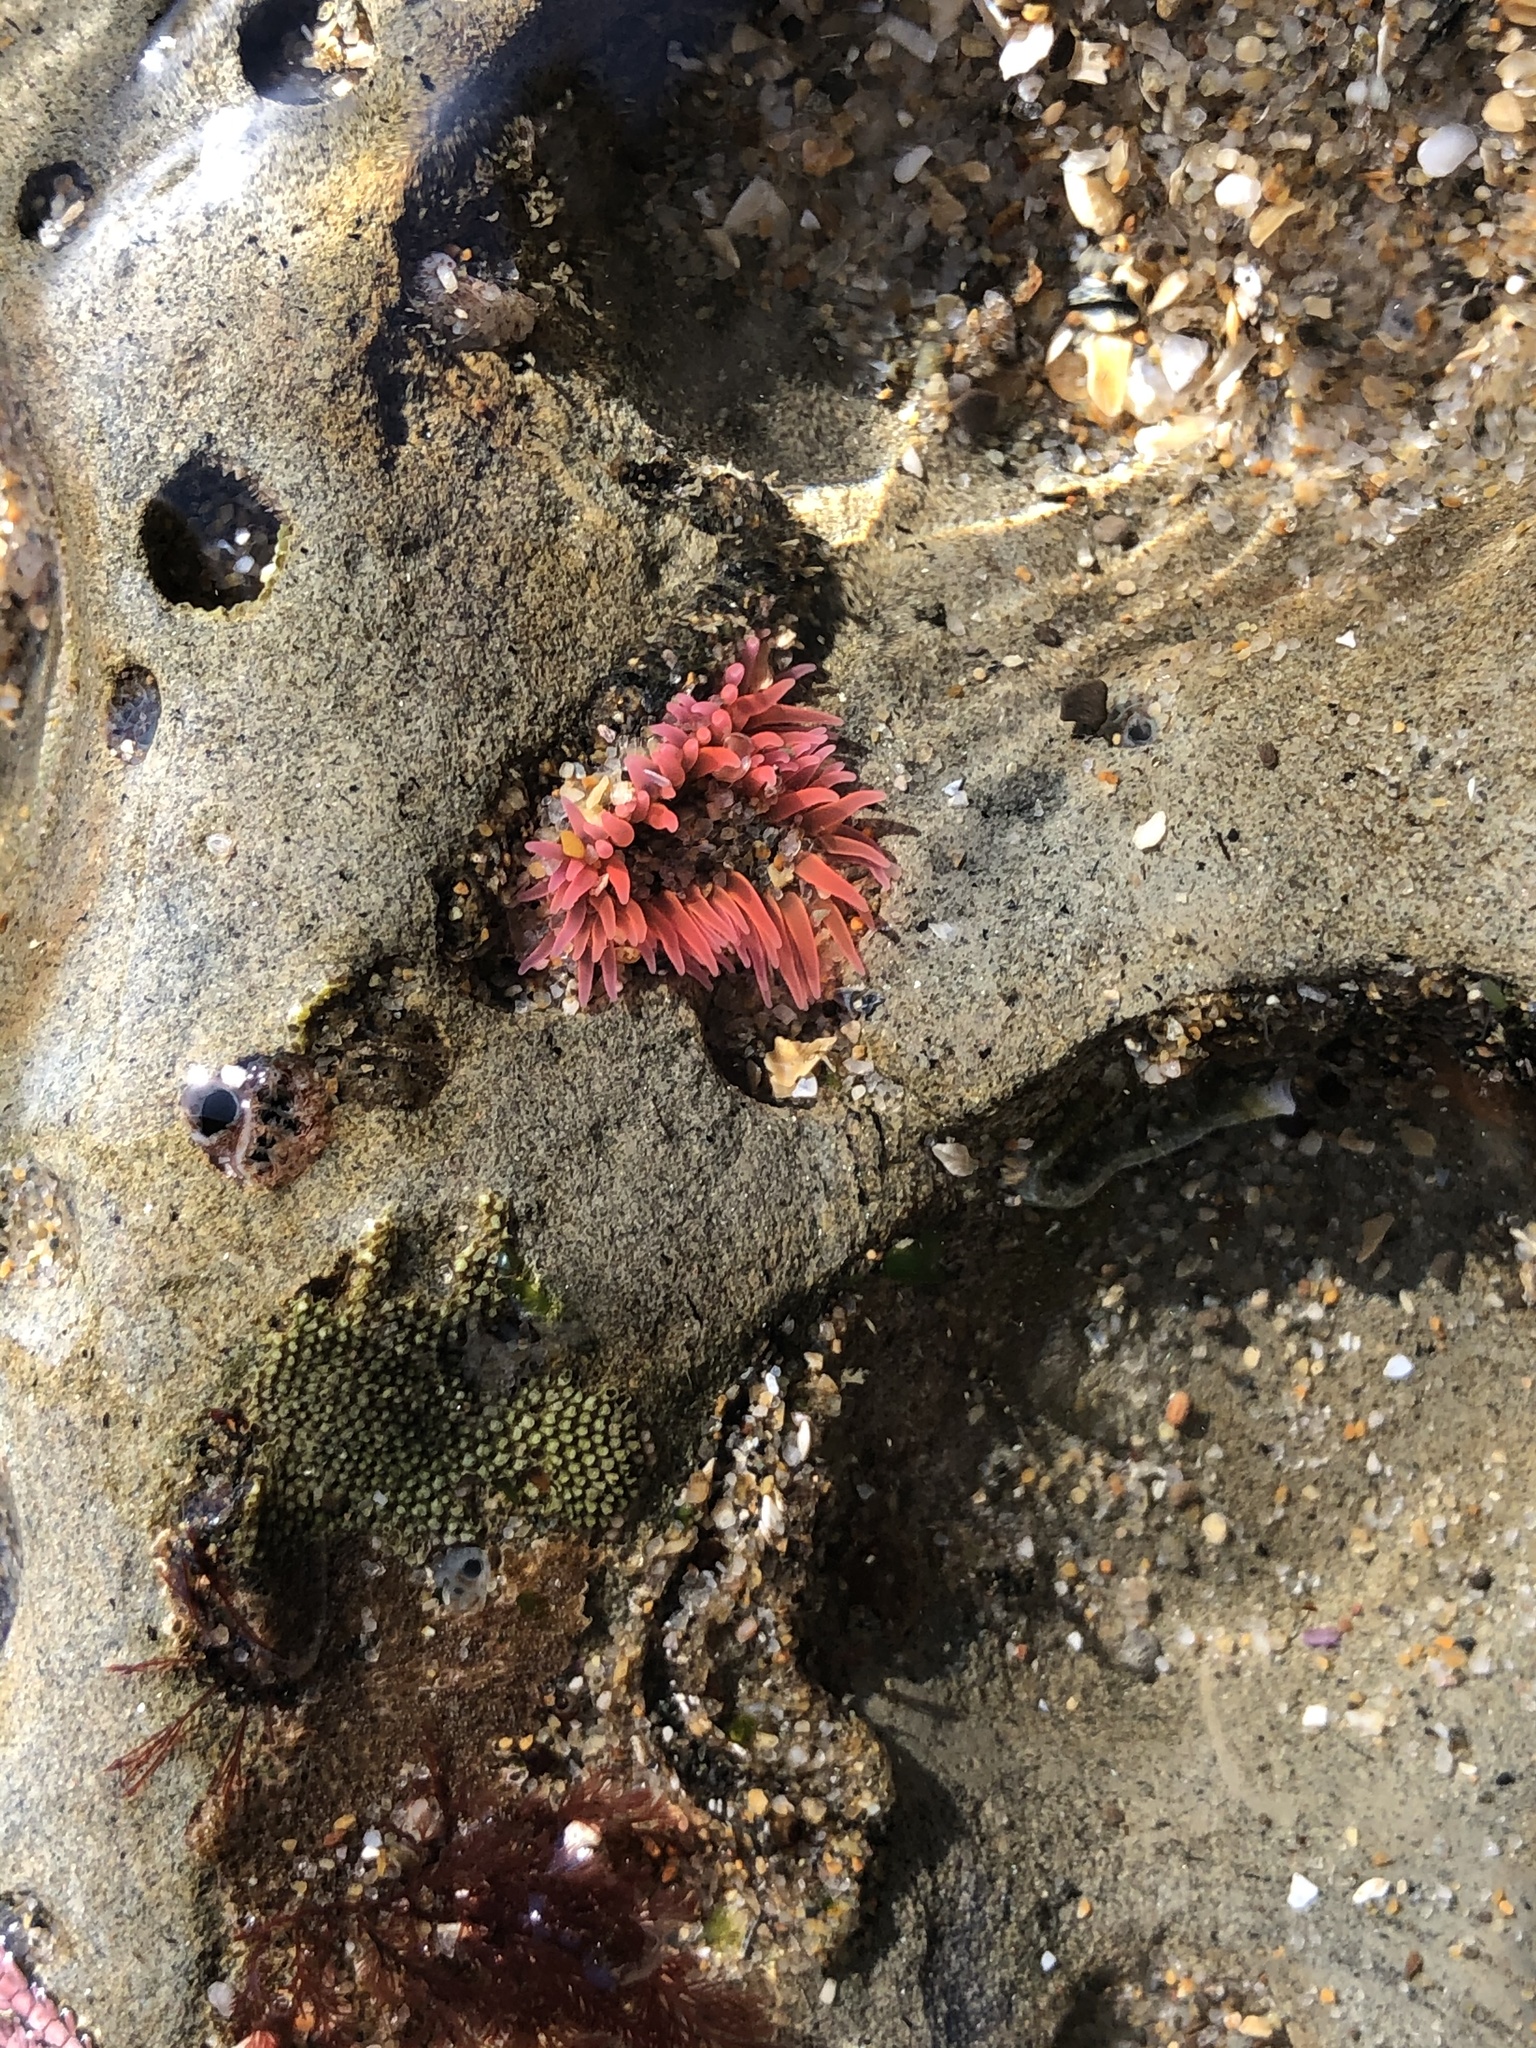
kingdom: Animalia
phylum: Cnidaria
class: Anthozoa
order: Actiniaria
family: Actiniidae
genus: Anthopleura
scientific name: Anthopleura artemisia
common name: Buried sea anemone
